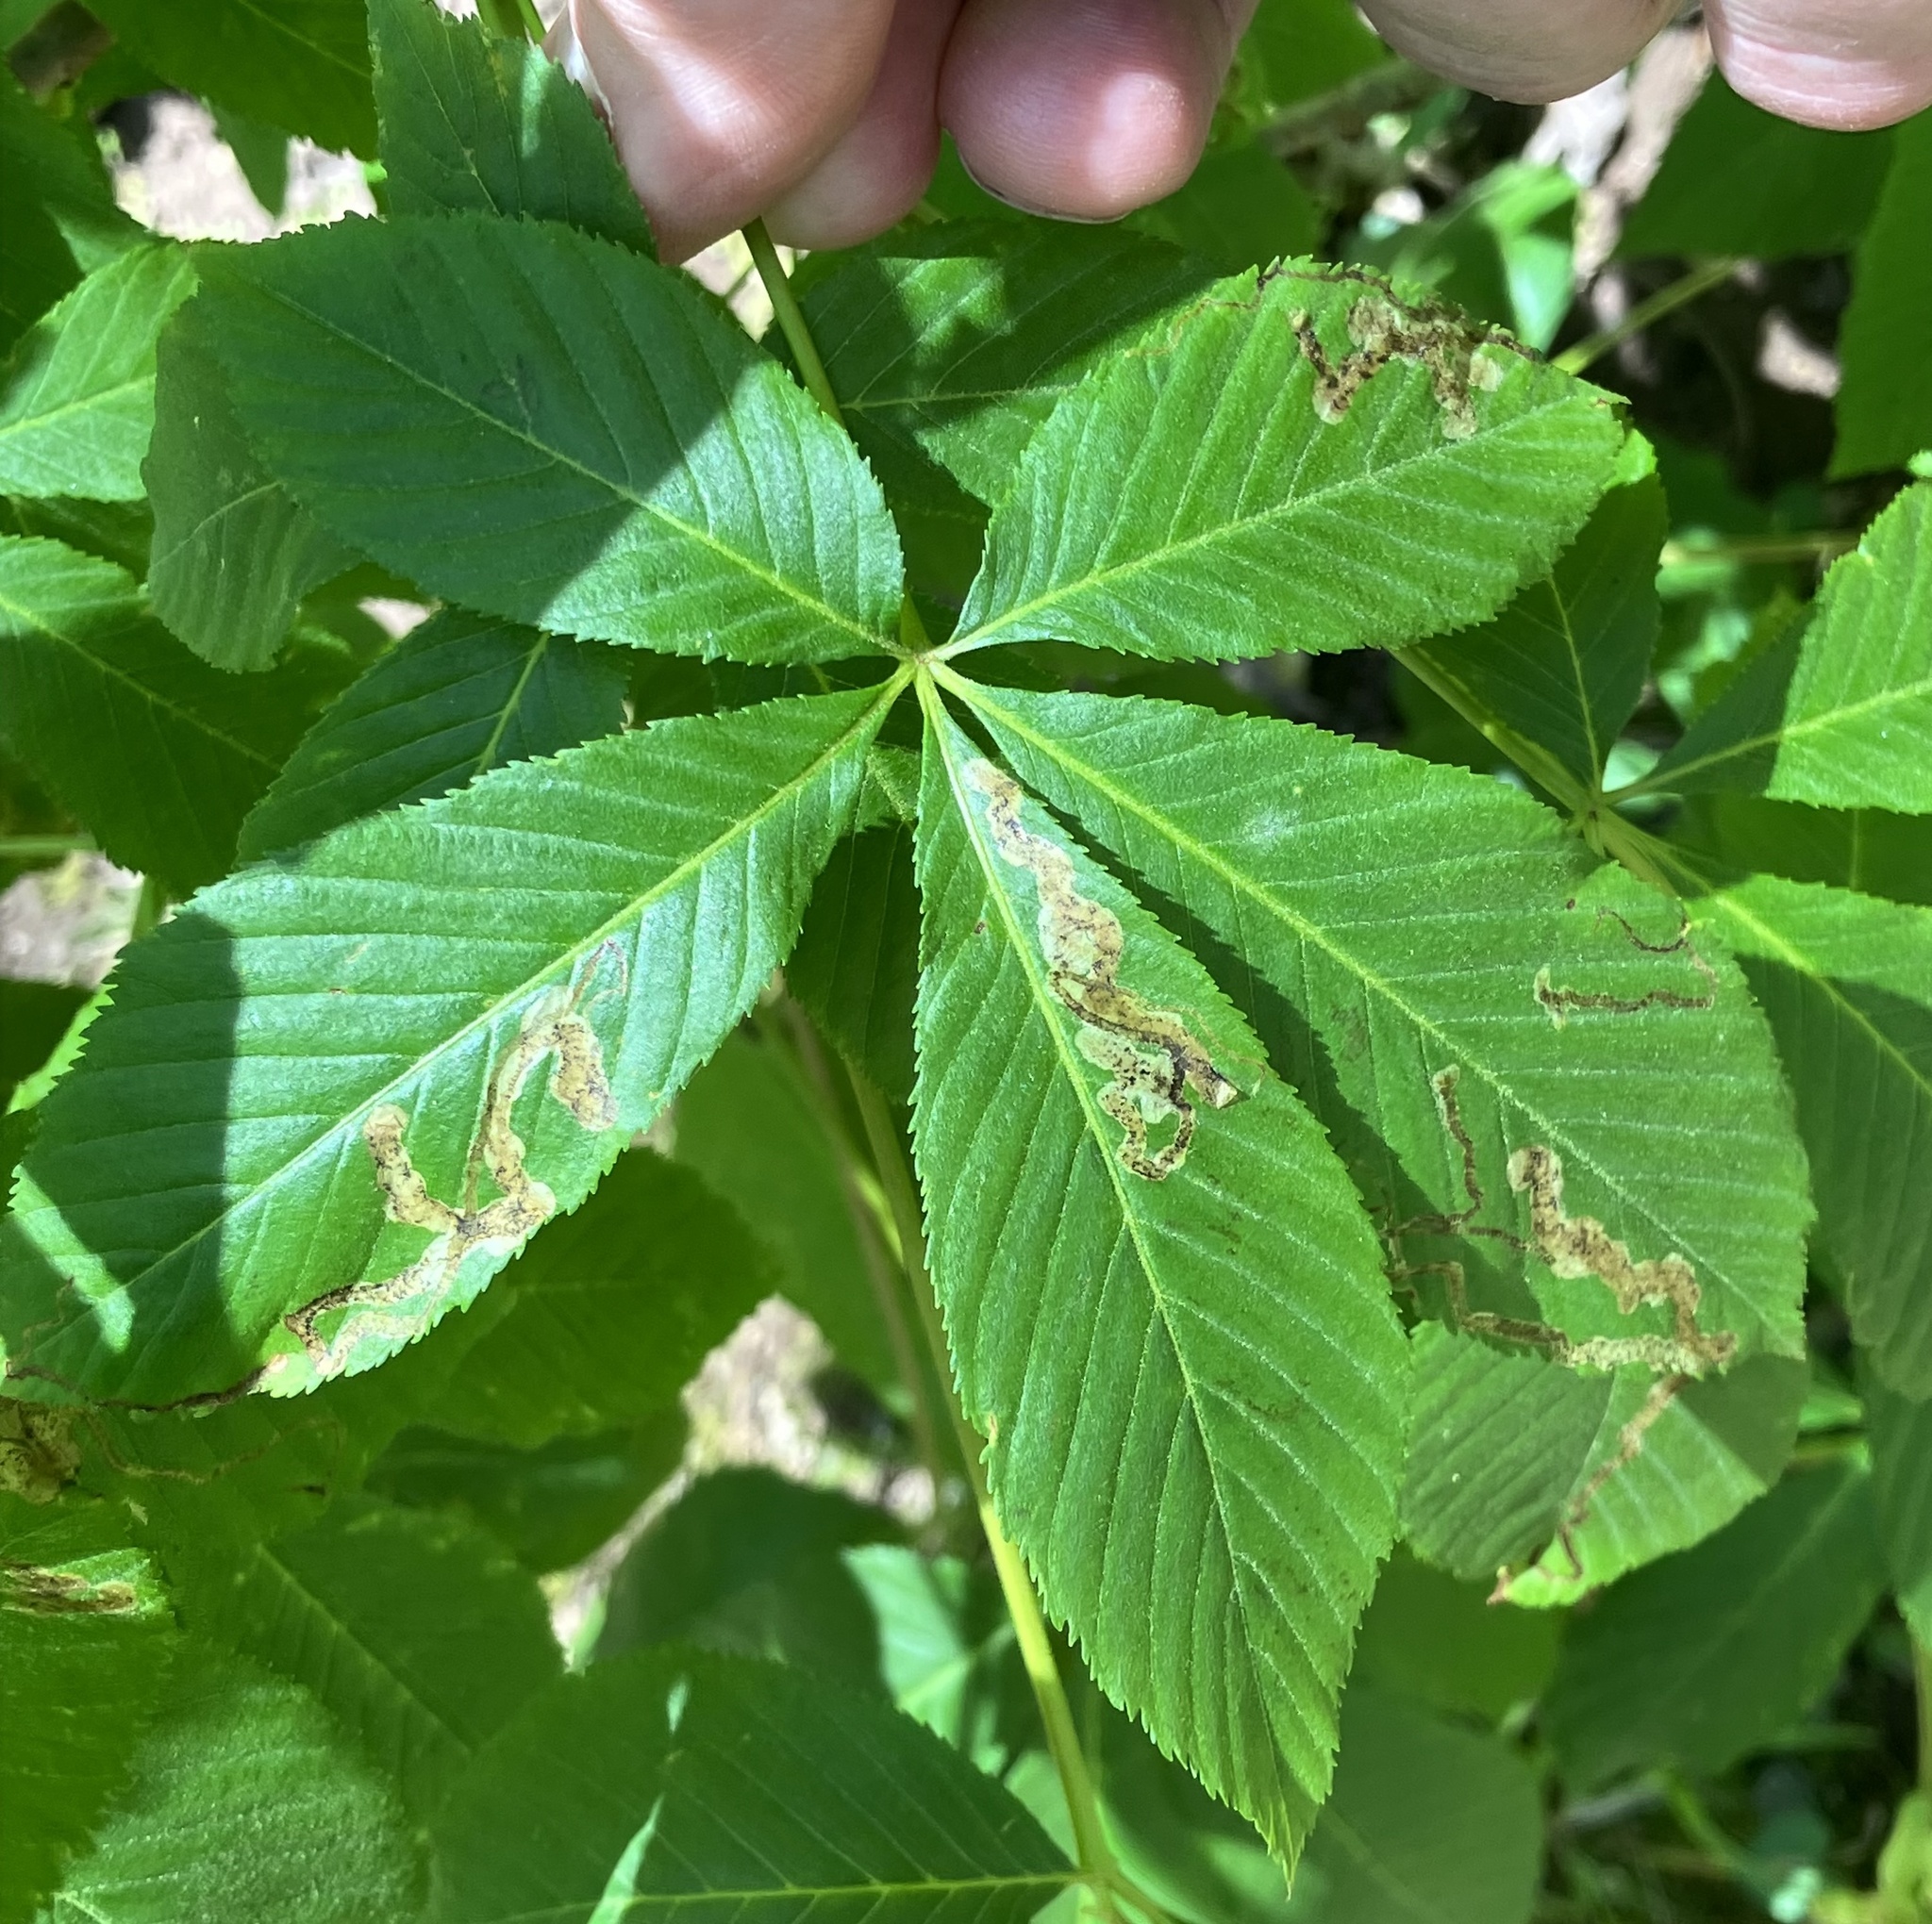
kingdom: Animalia
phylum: Arthropoda
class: Insecta
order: Diptera
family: Agromyzidae
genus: Phytomyza
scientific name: Phytomyza aesculi
